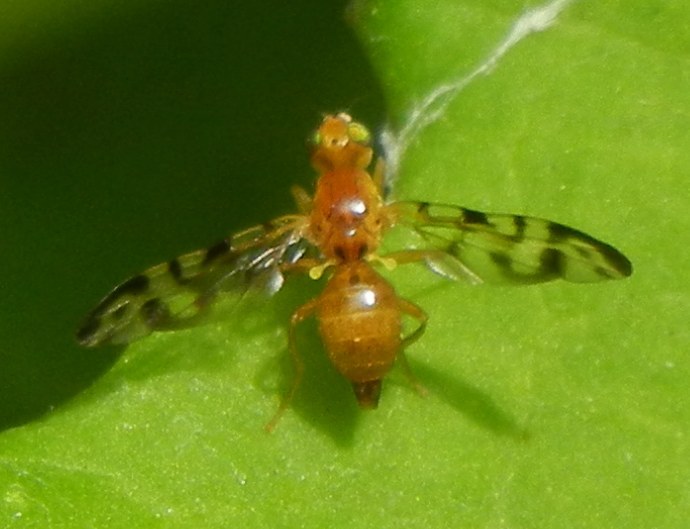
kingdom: Animalia
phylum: Arthropoda
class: Insecta
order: Diptera
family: Tephritidae
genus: Acidia
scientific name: Acidia cognata
